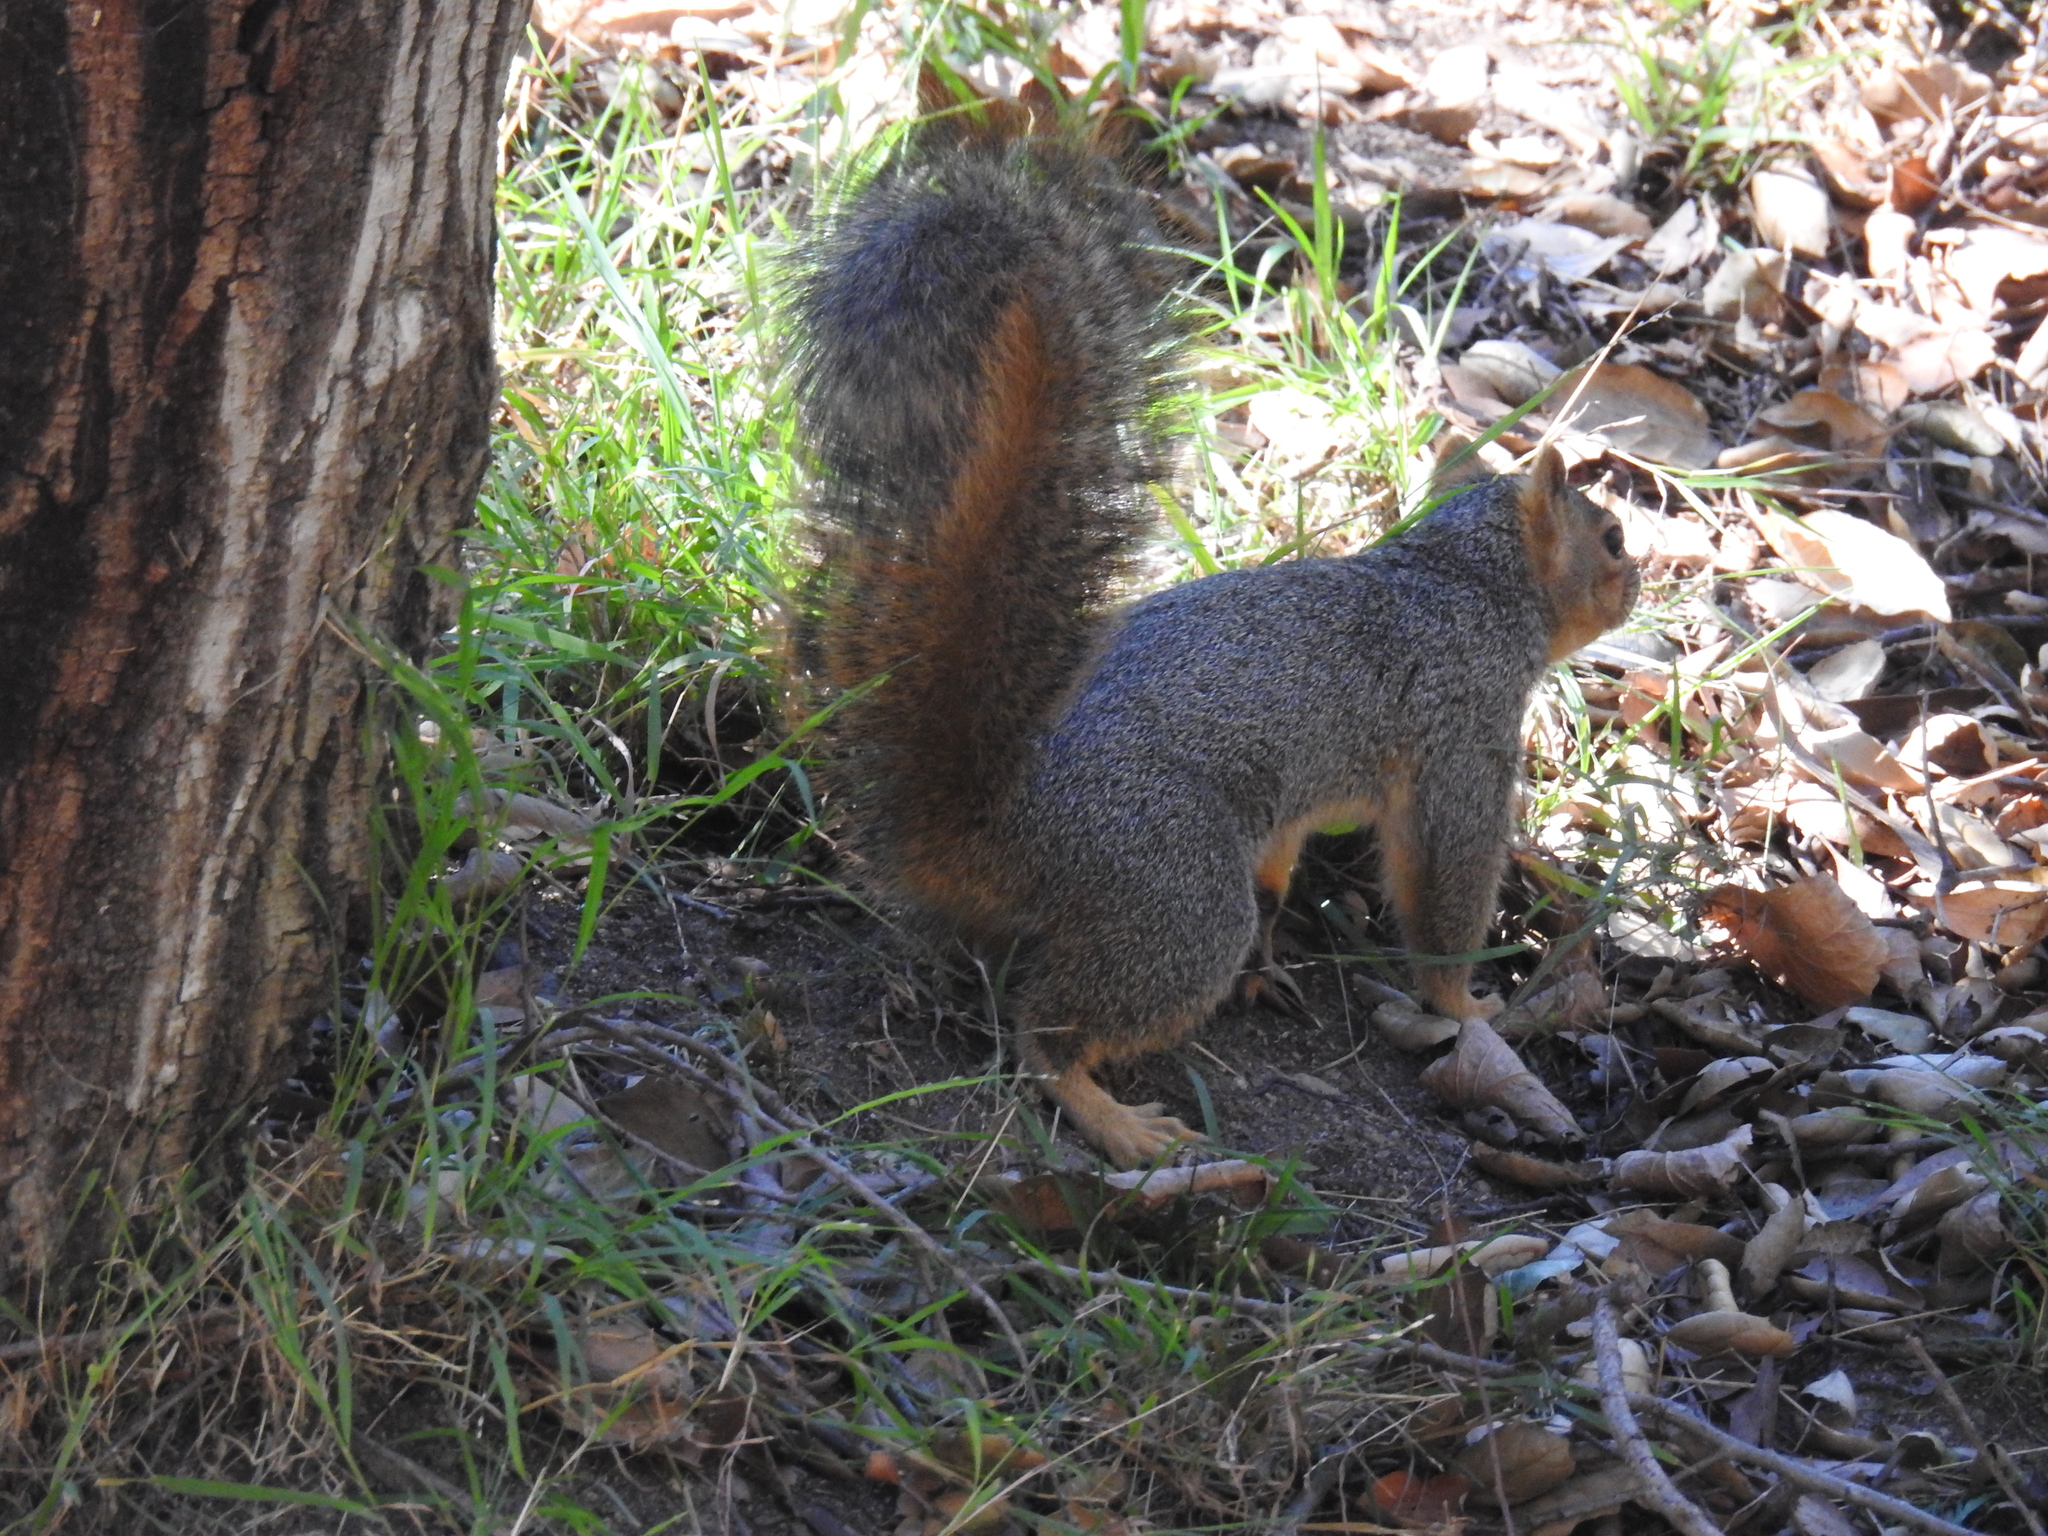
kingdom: Animalia
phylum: Chordata
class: Mammalia
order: Rodentia
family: Sciuridae
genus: Sciurus
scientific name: Sciurus niger
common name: Fox squirrel
